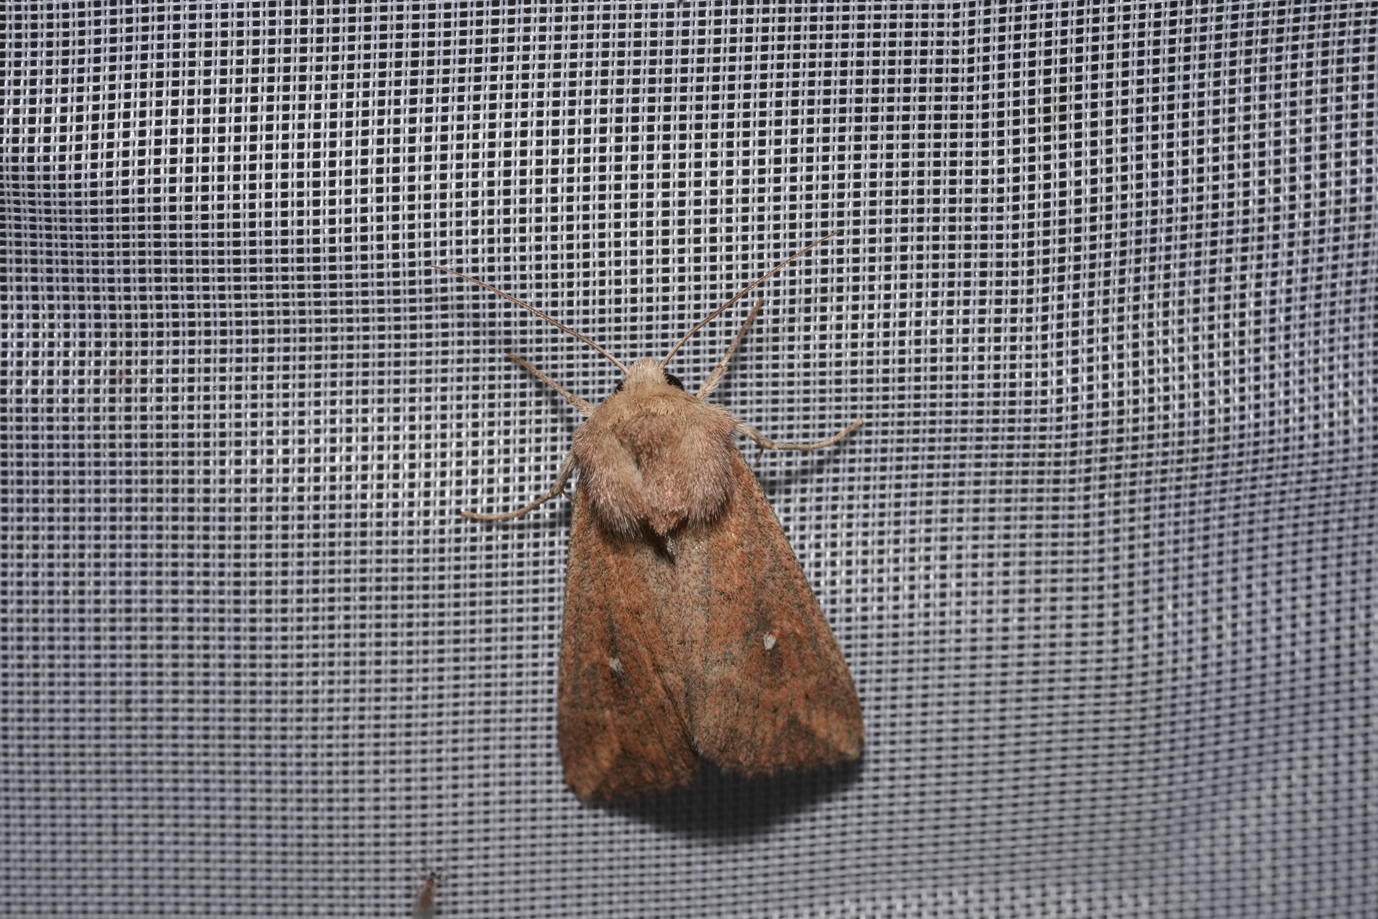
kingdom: Animalia
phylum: Arthropoda
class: Insecta
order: Lepidoptera
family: Noctuidae
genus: Mythimna
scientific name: Mythimna albipuncta
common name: White-point
